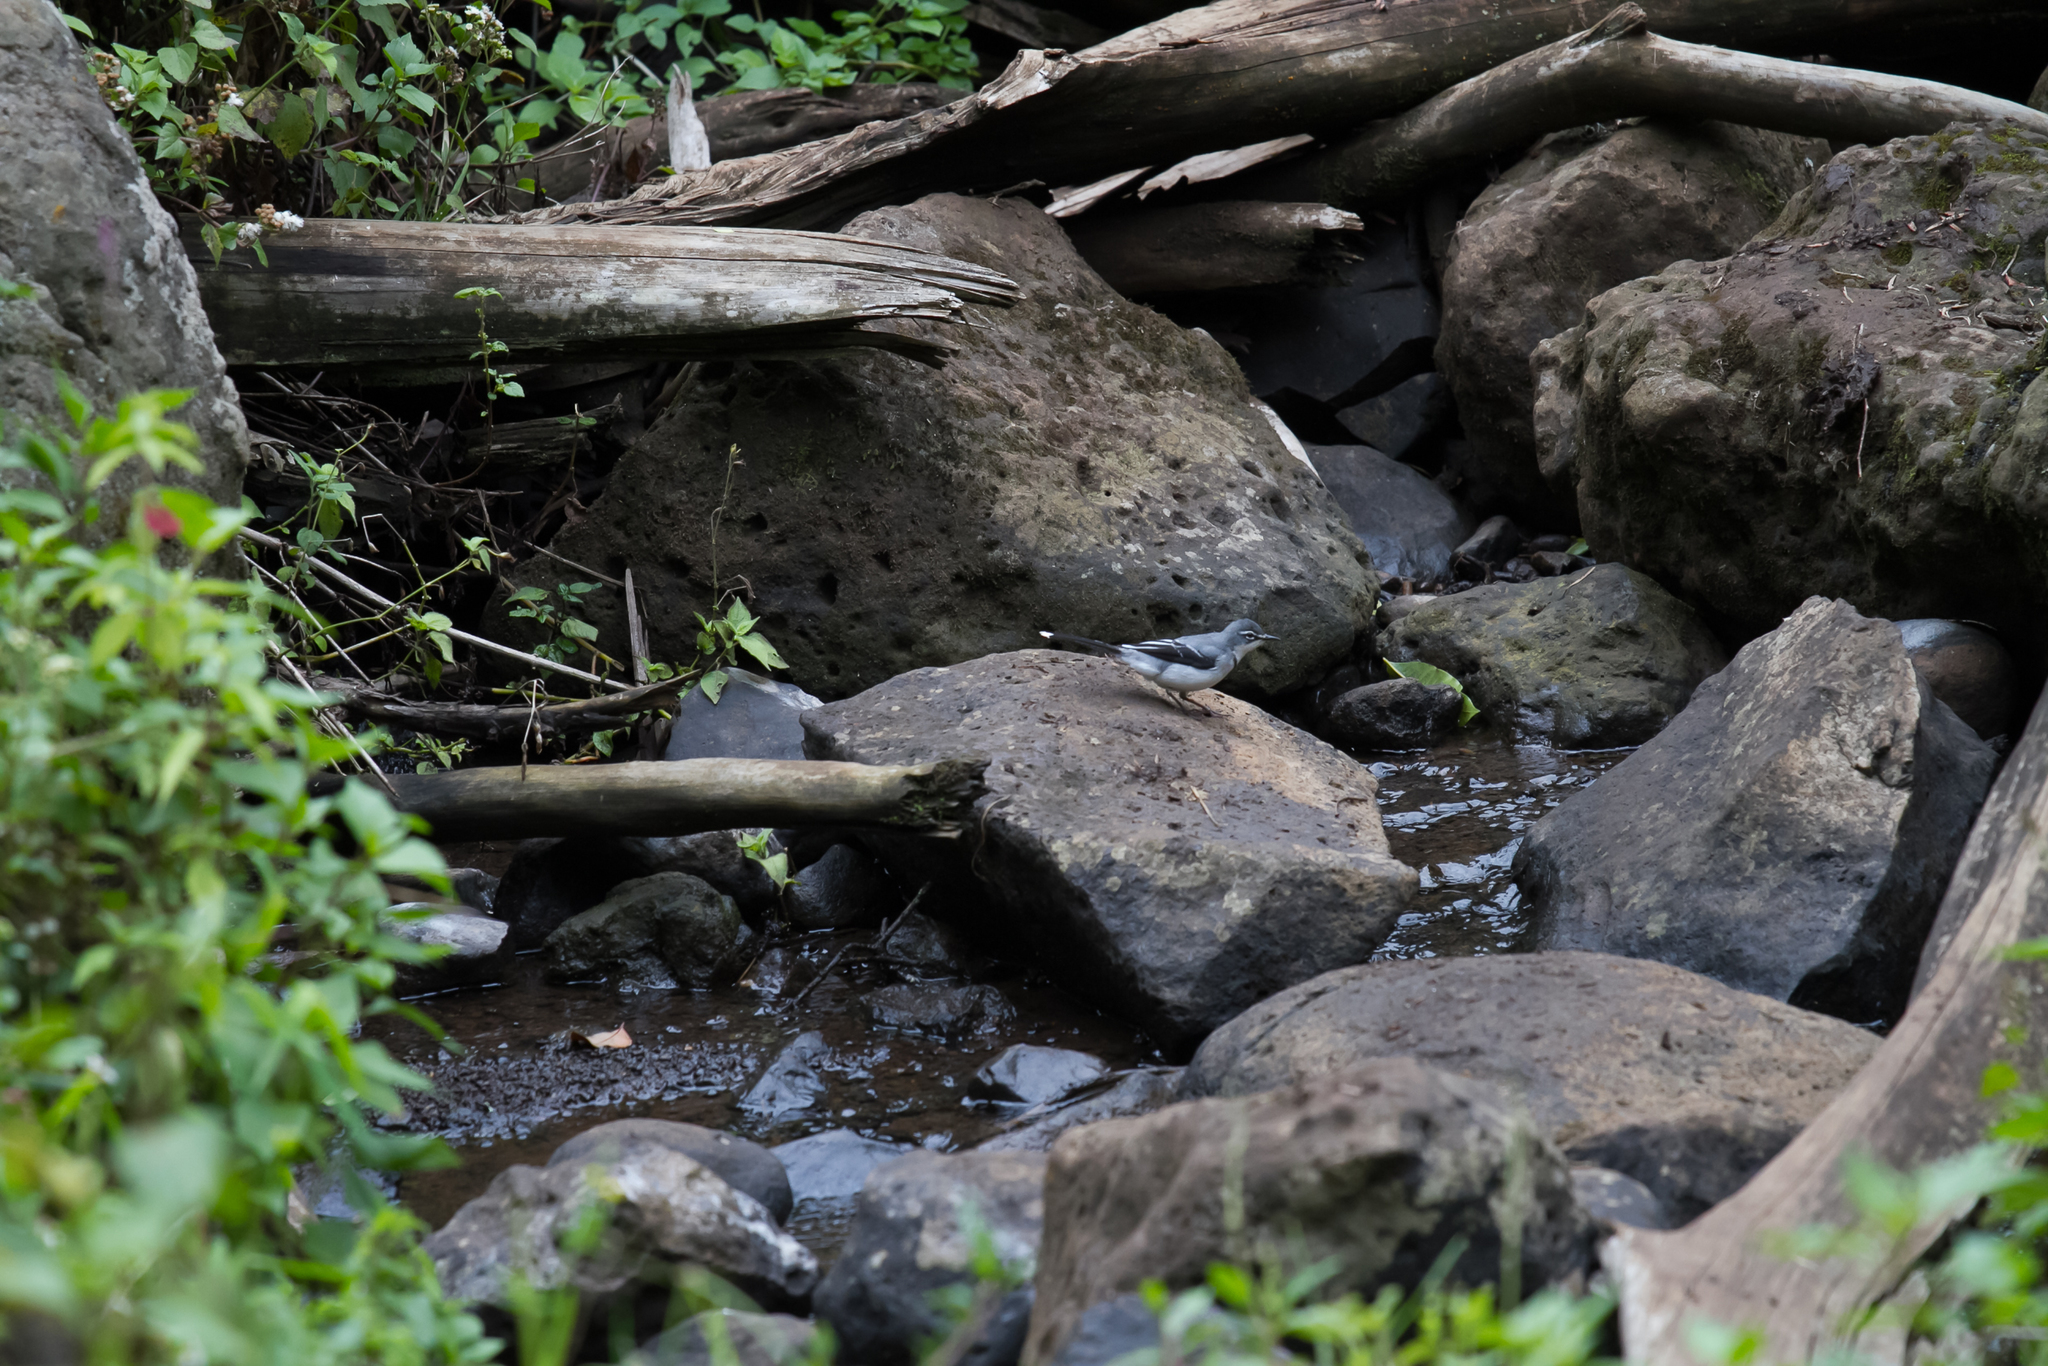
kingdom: Animalia
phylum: Chordata
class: Aves
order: Passeriformes
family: Motacillidae
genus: Motacilla
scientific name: Motacilla clara
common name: Mountain wagtail
